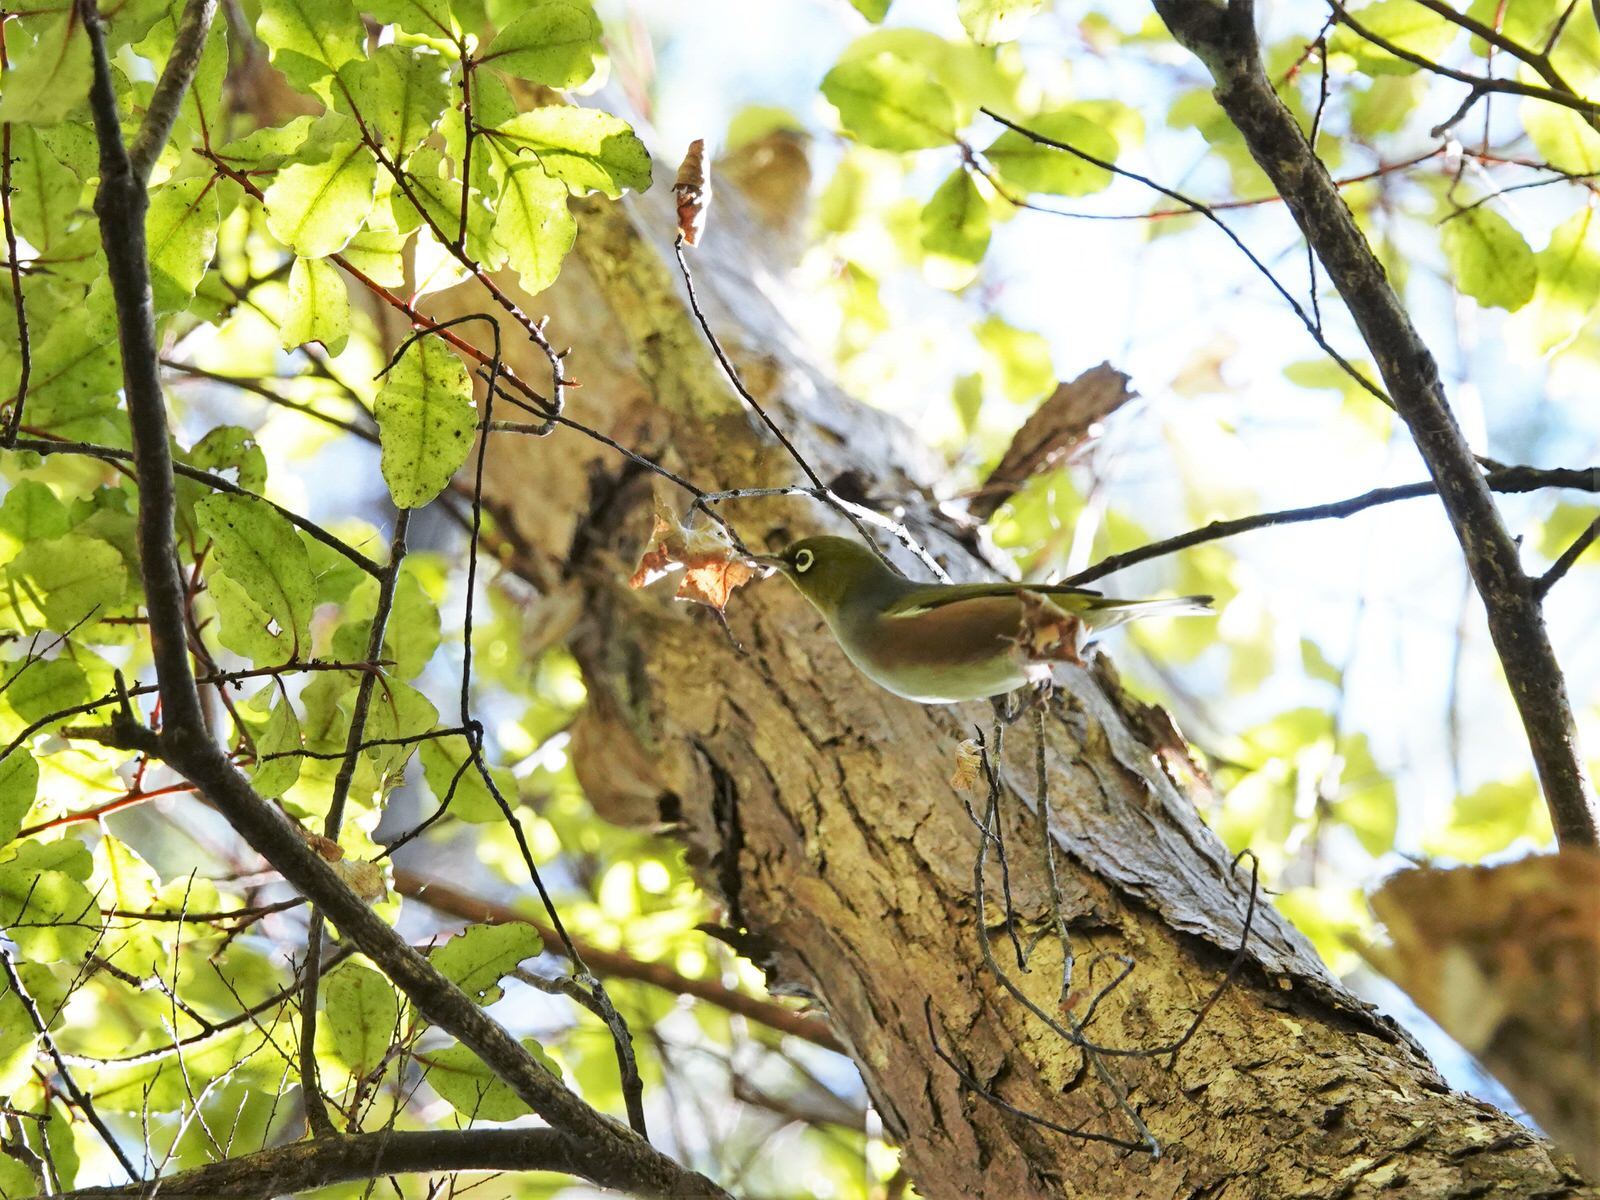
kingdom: Animalia
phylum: Chordata
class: Aves
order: Passeriformes
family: Zosteropidae
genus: Zosterops
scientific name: Zosterops lateralis
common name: Silvereye
